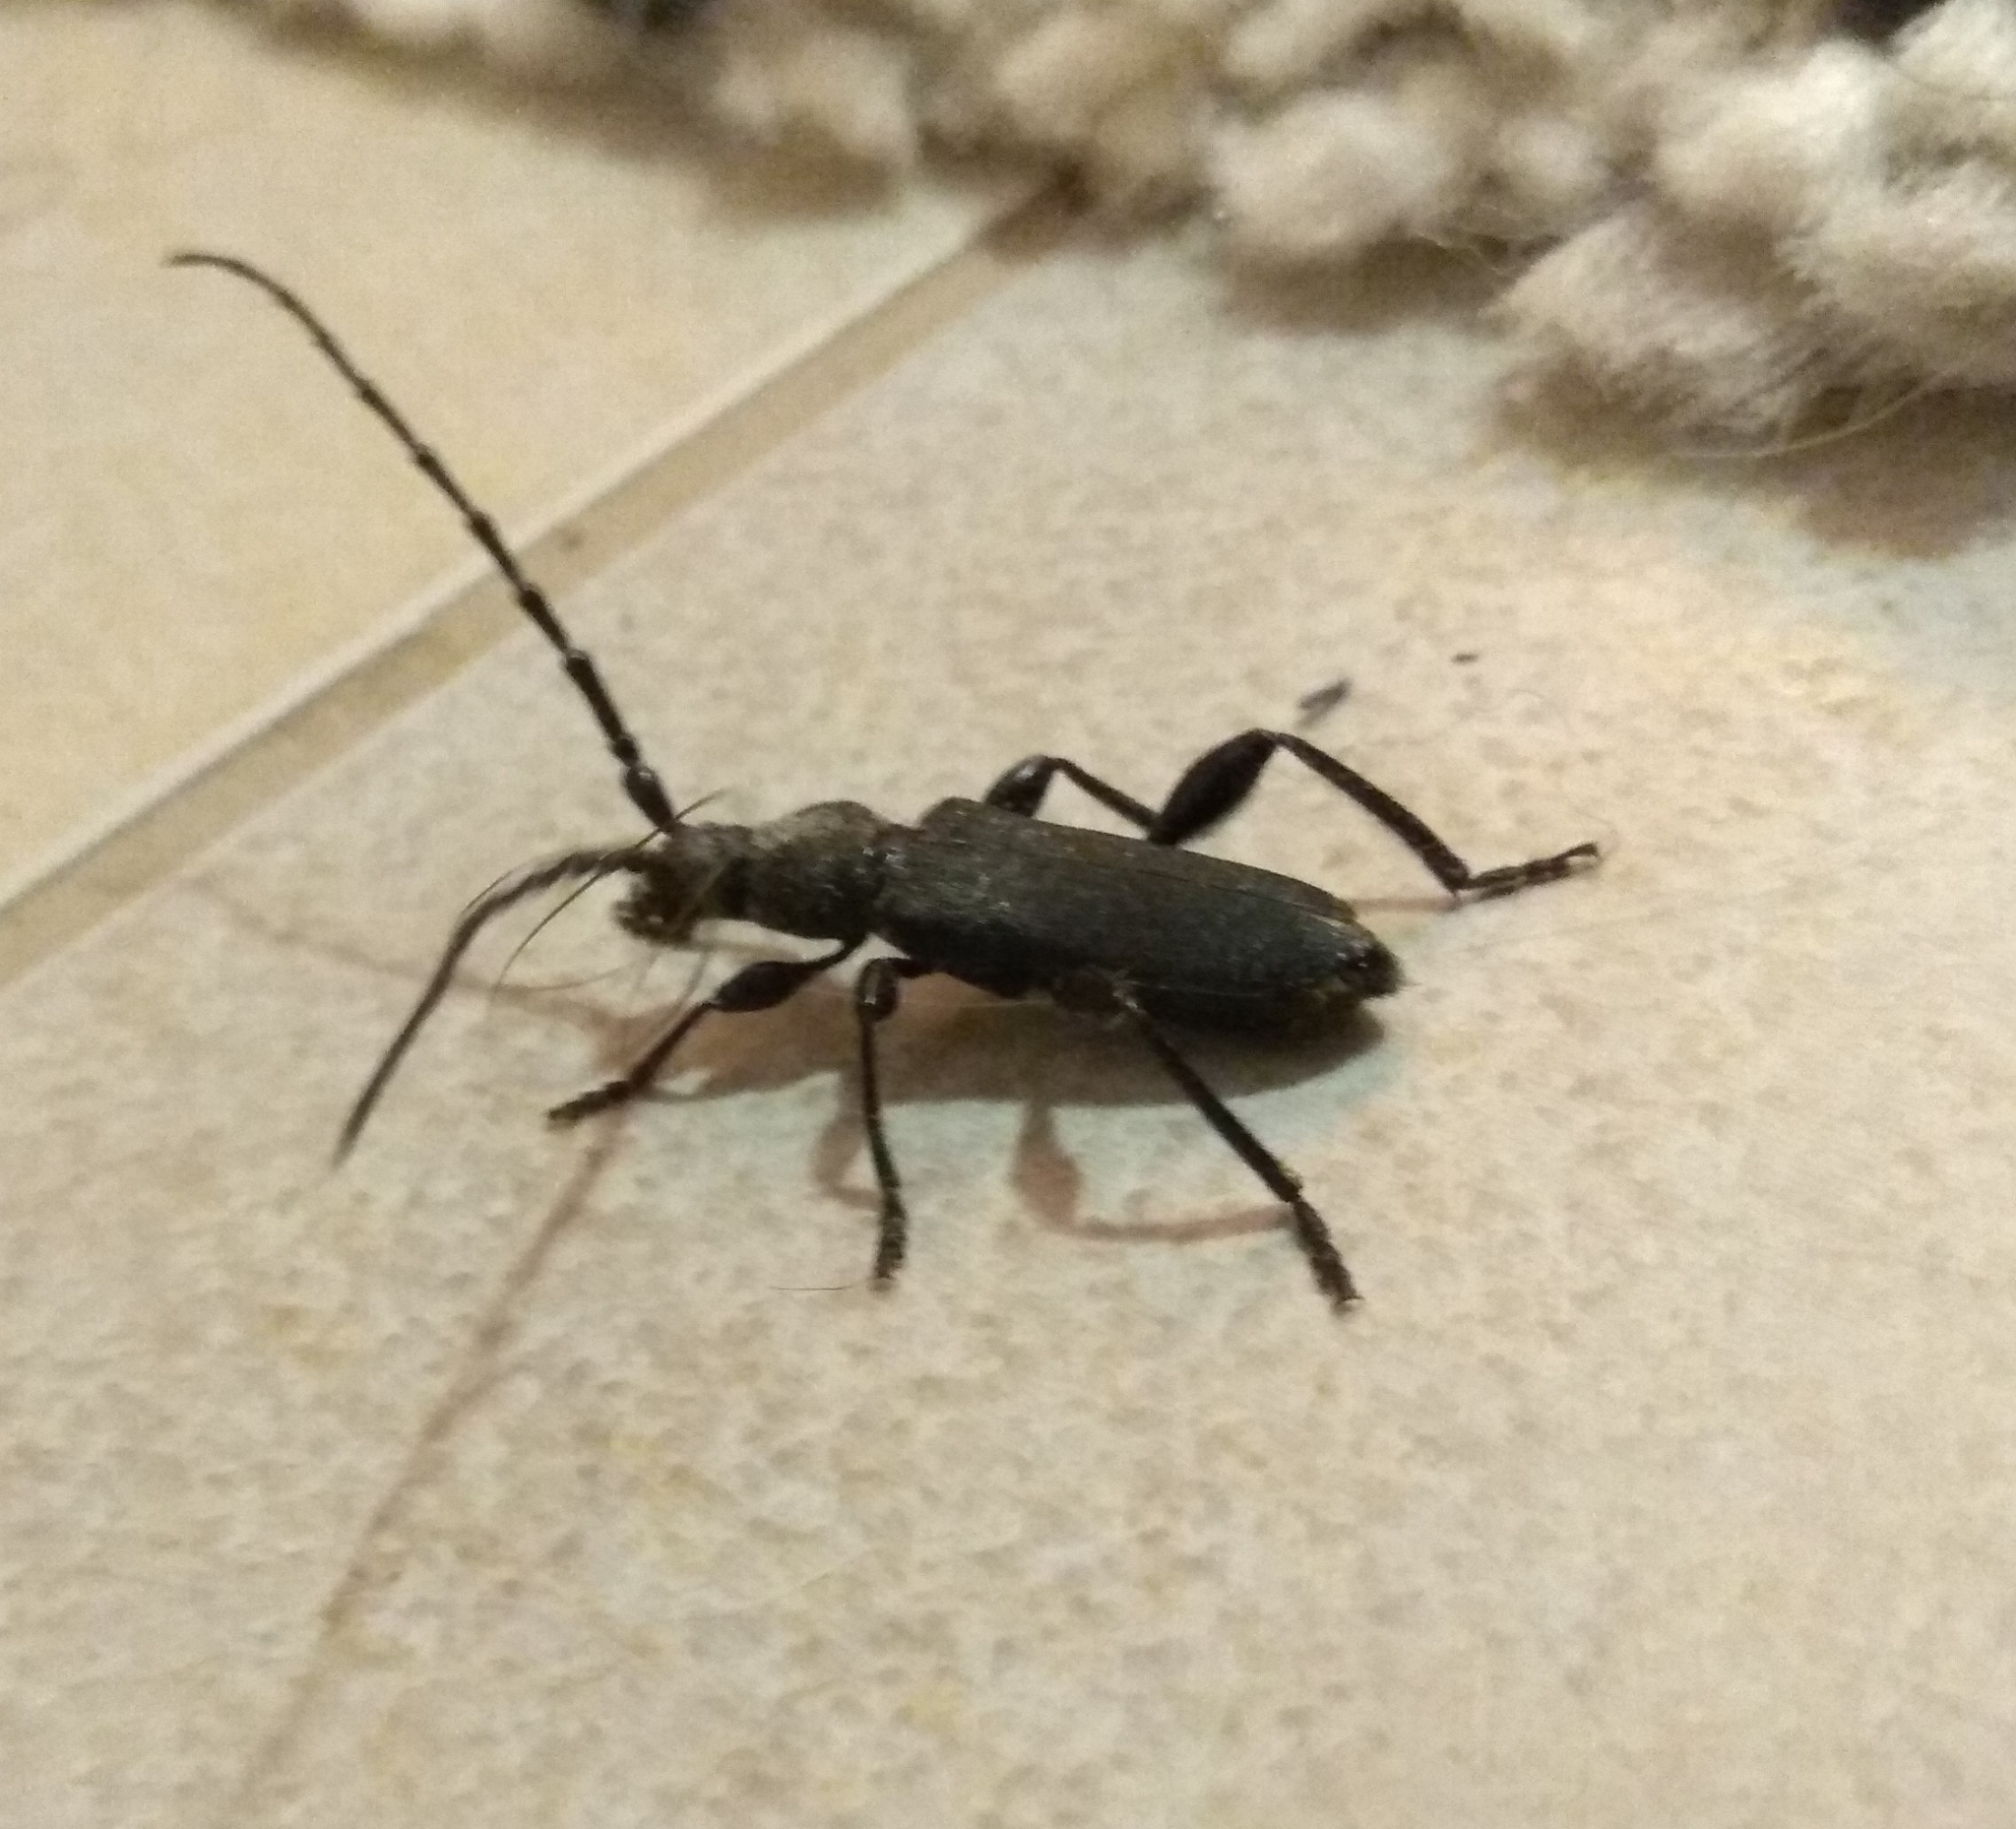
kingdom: Animalia
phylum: Arthropoda
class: Insecta
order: Coleoptera
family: Cerambycidae
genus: Ropalopus
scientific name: Ropalopus clavipes
